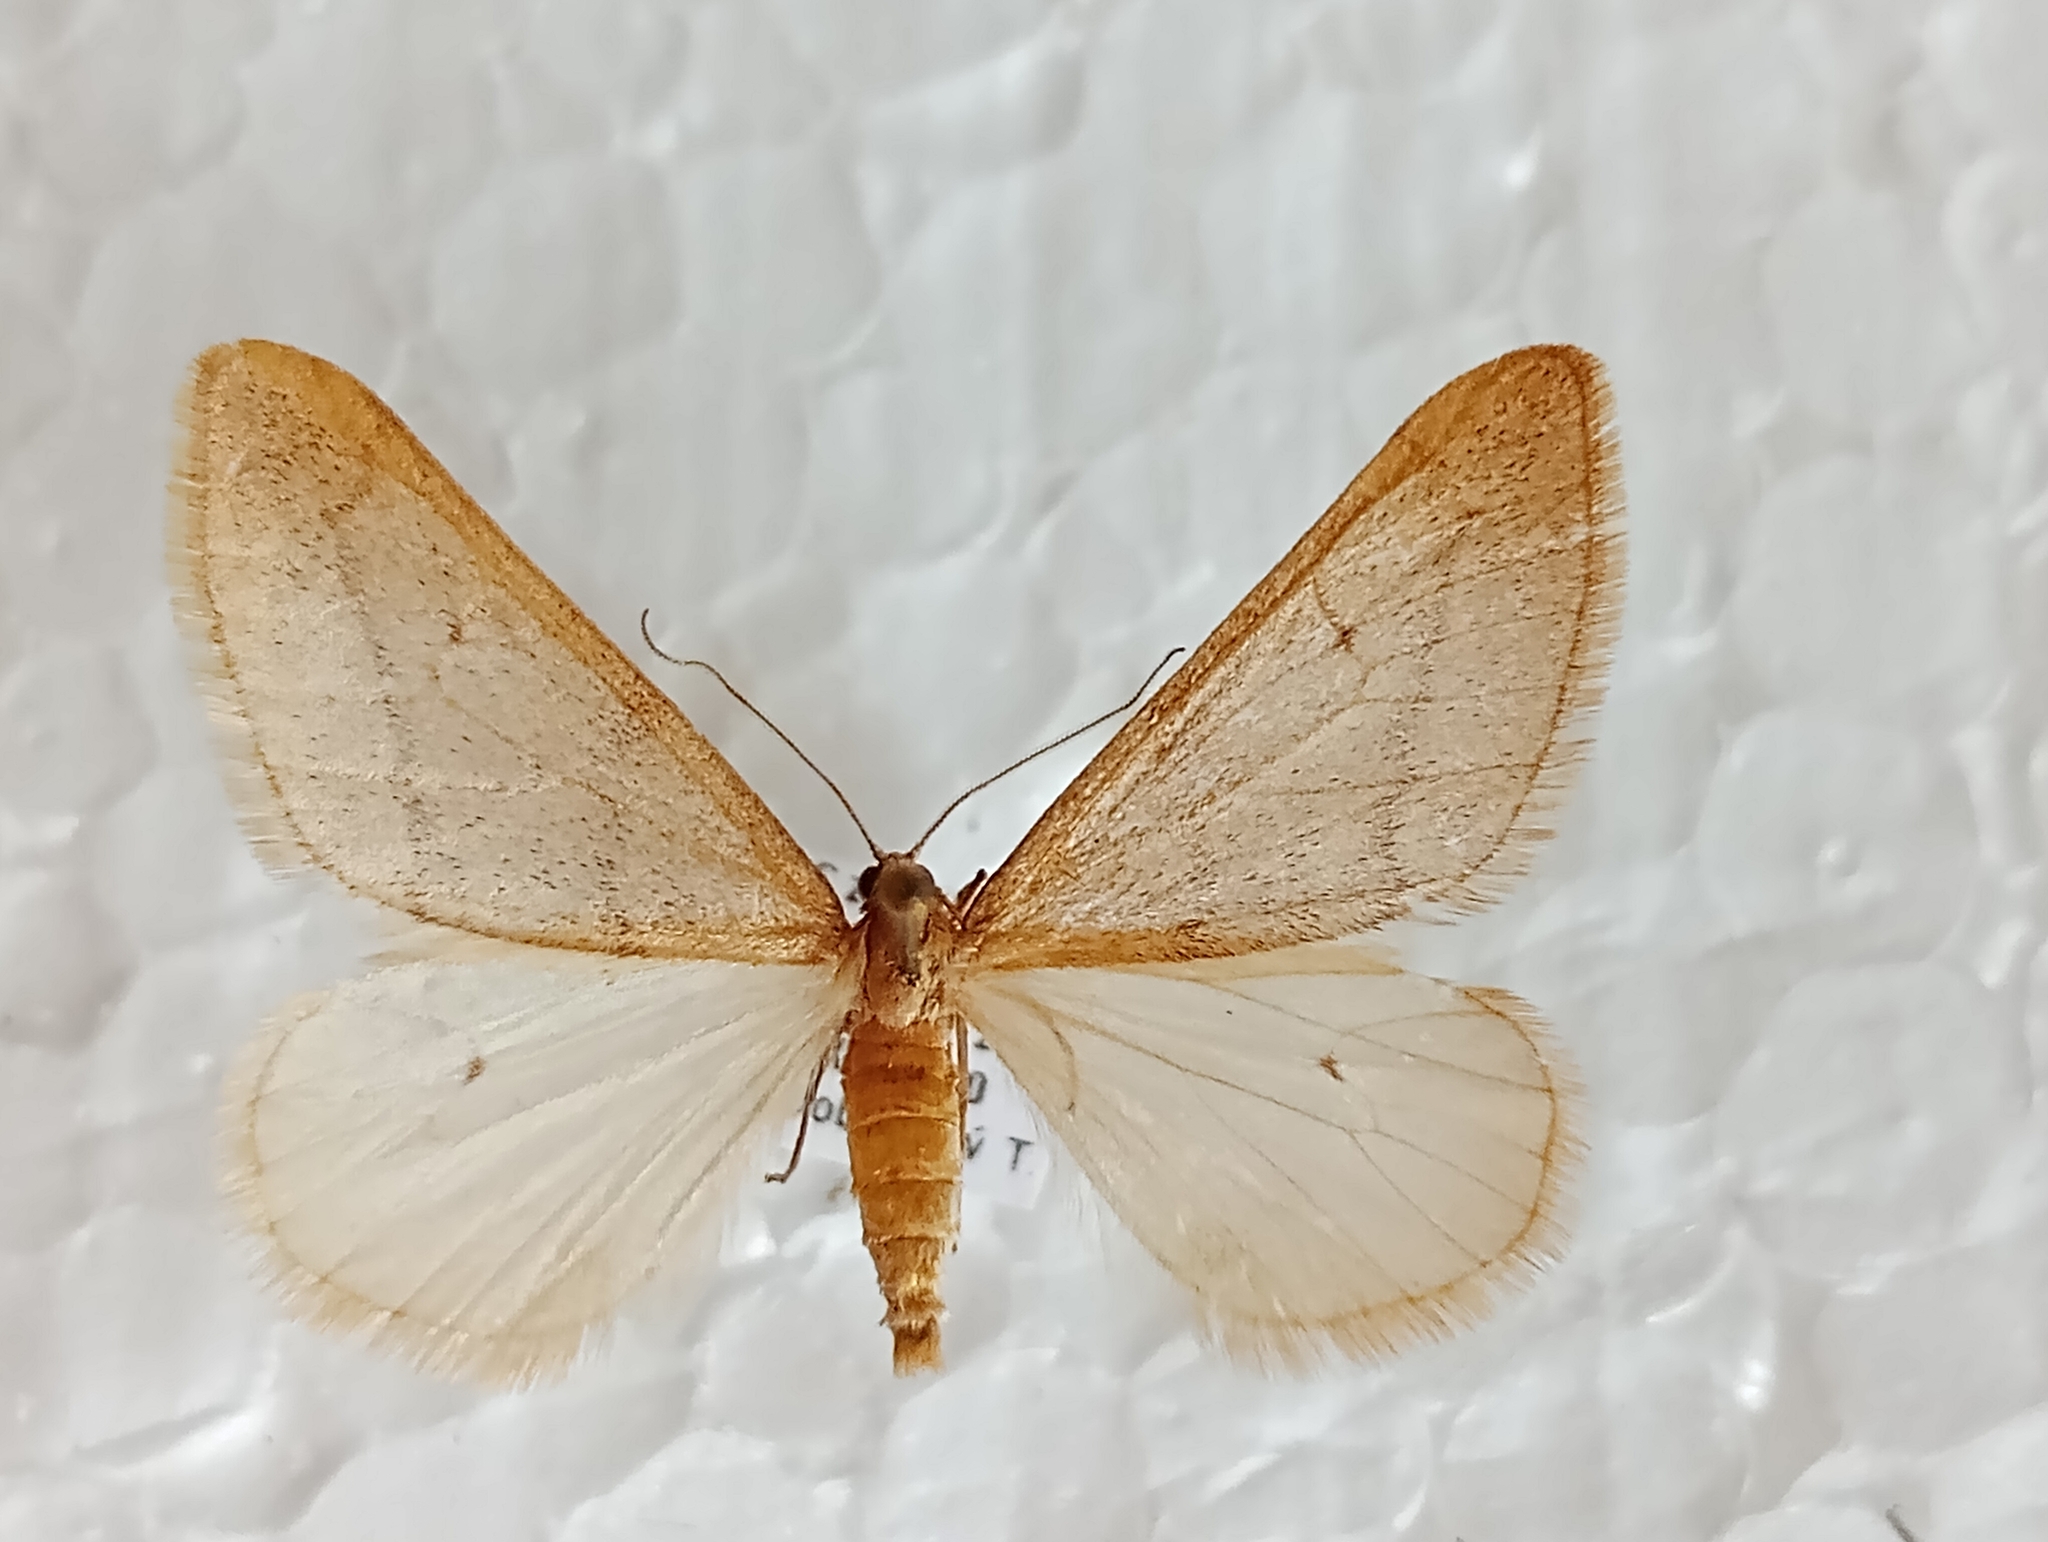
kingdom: Animalia
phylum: Arthropoda
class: Insecta
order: Lepidoptera
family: Geometridae
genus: Alsophila
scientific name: Alsophila aceraria
